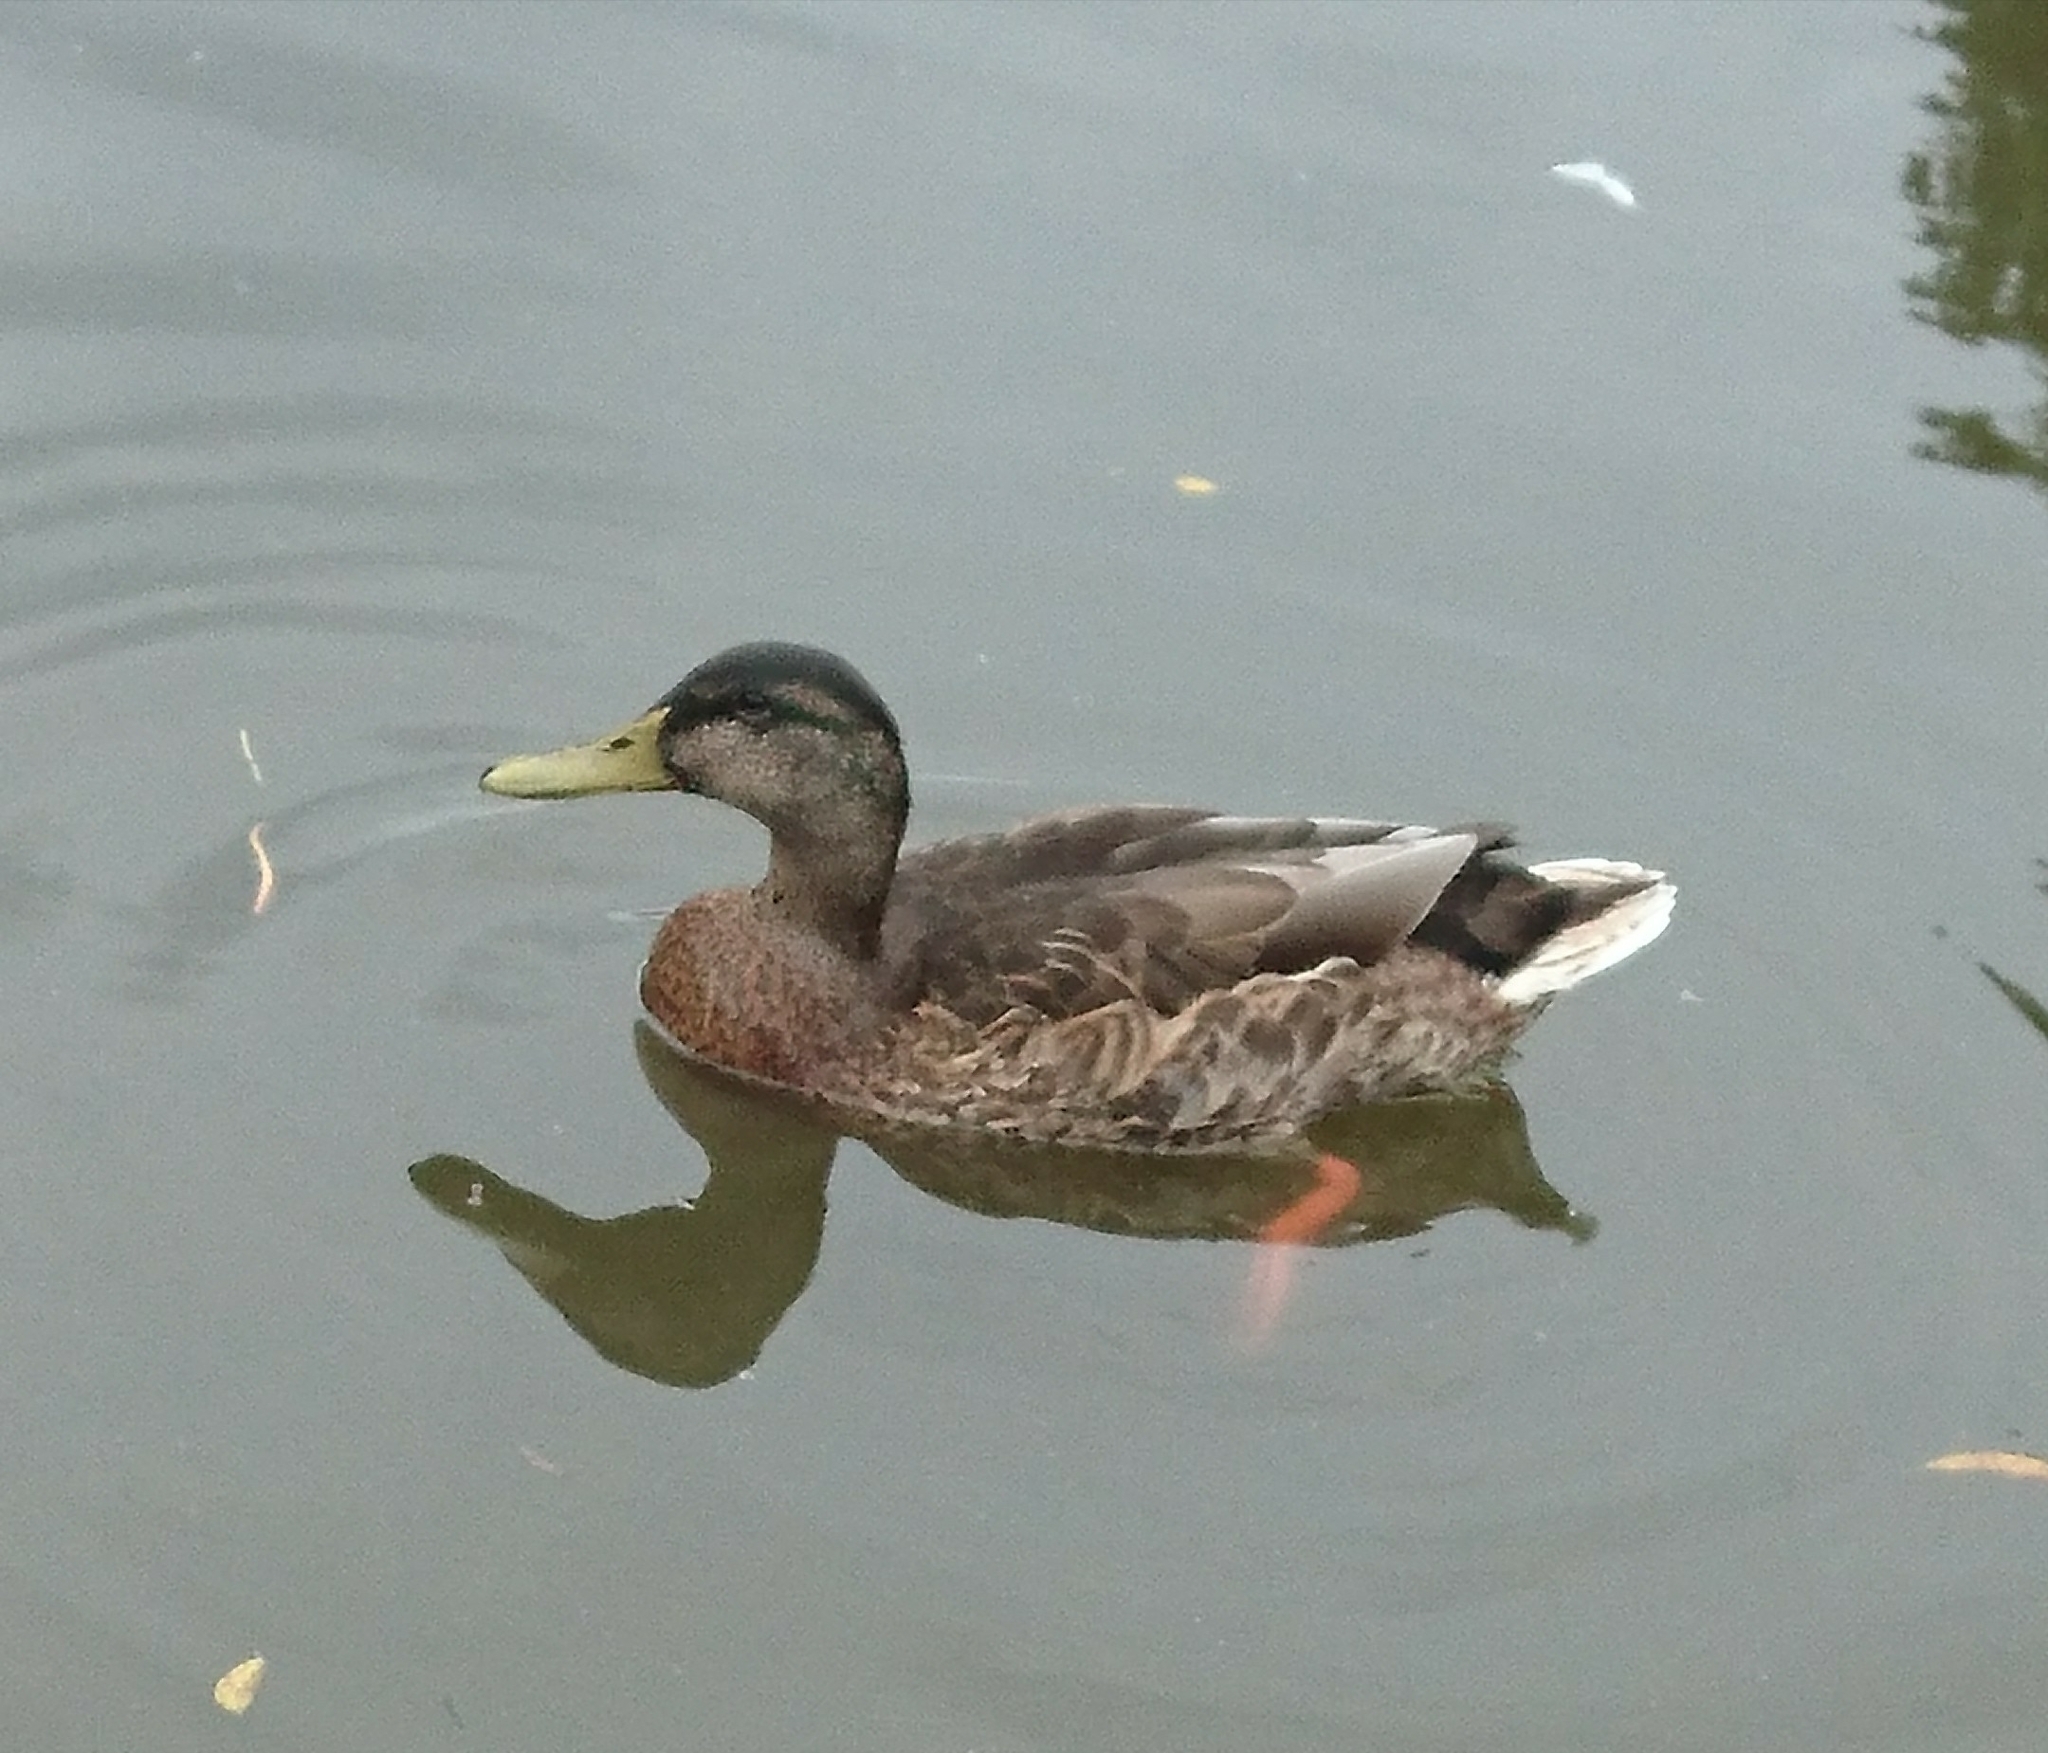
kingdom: Animalia
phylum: Chordata
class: Aves
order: Anseriformes
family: Anatidae
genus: Anas
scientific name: Anas platyrhynchos
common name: Mallard
